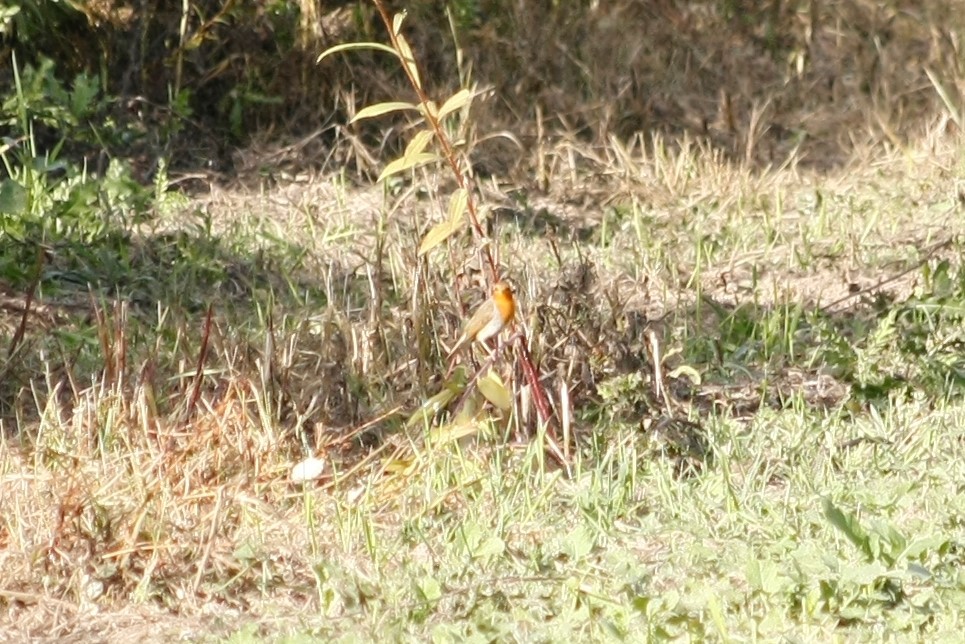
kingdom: Animalia
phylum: Chordata
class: Aves
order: Passeriformes
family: Muscicapidae
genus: Erithacus
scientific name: Erithacus rubecula
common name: European robin
